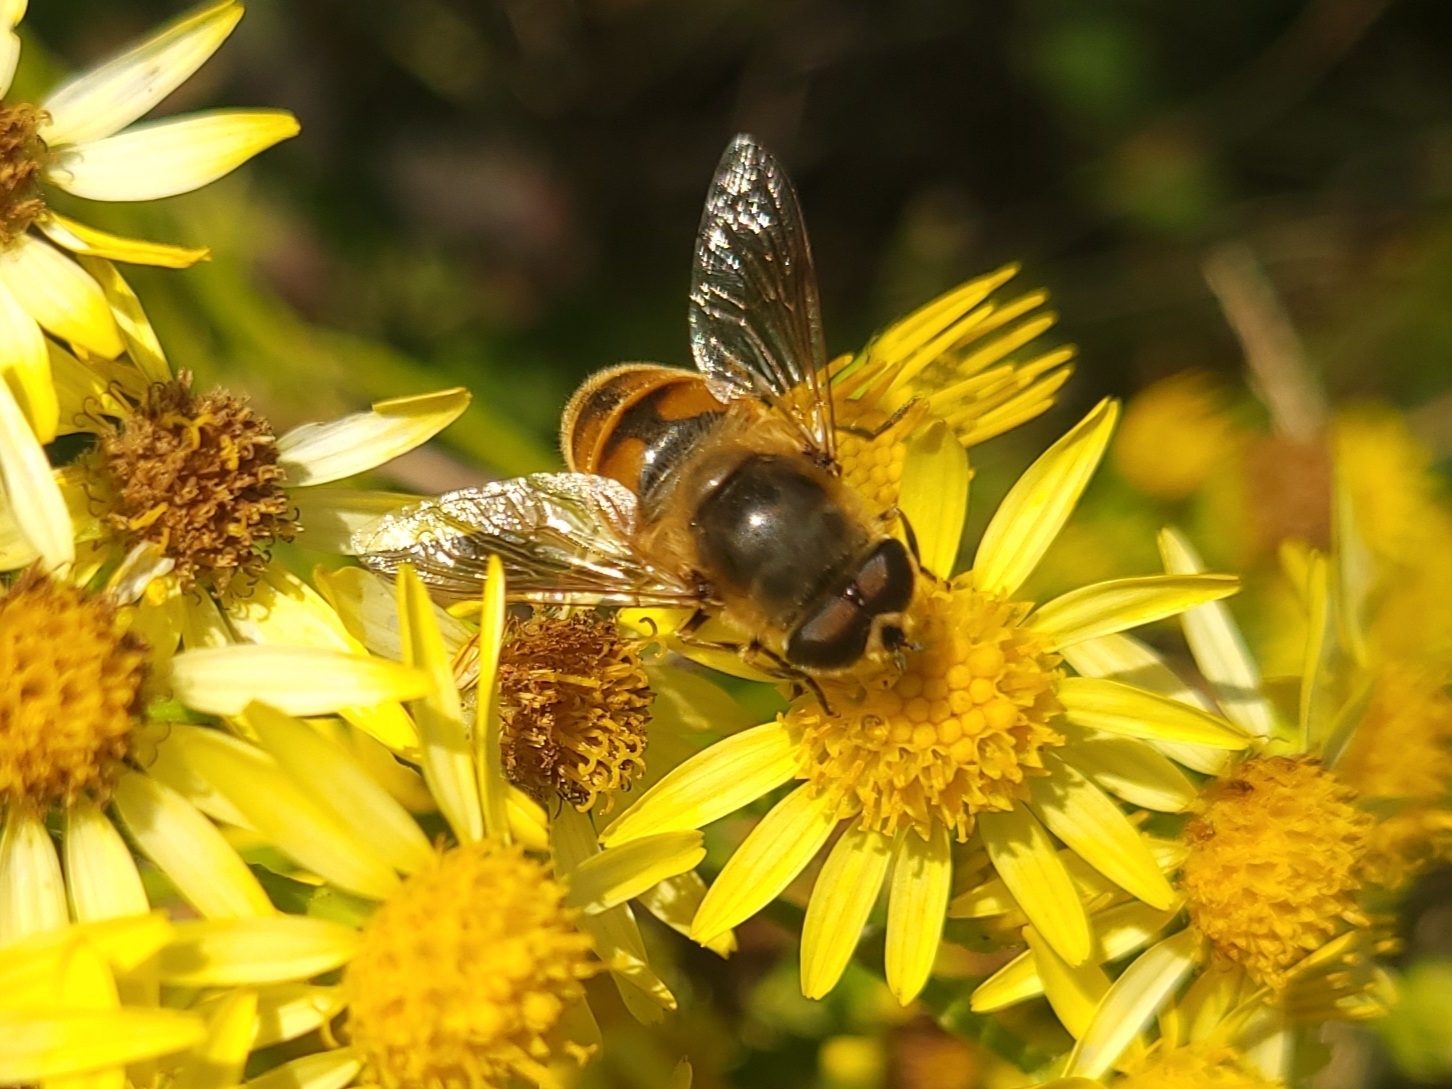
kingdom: Animalia
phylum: Arthropoda
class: Insecta
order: Diptera
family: Syrphidae
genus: Eristalis
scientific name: Eristalis tenax
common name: Drone fly
